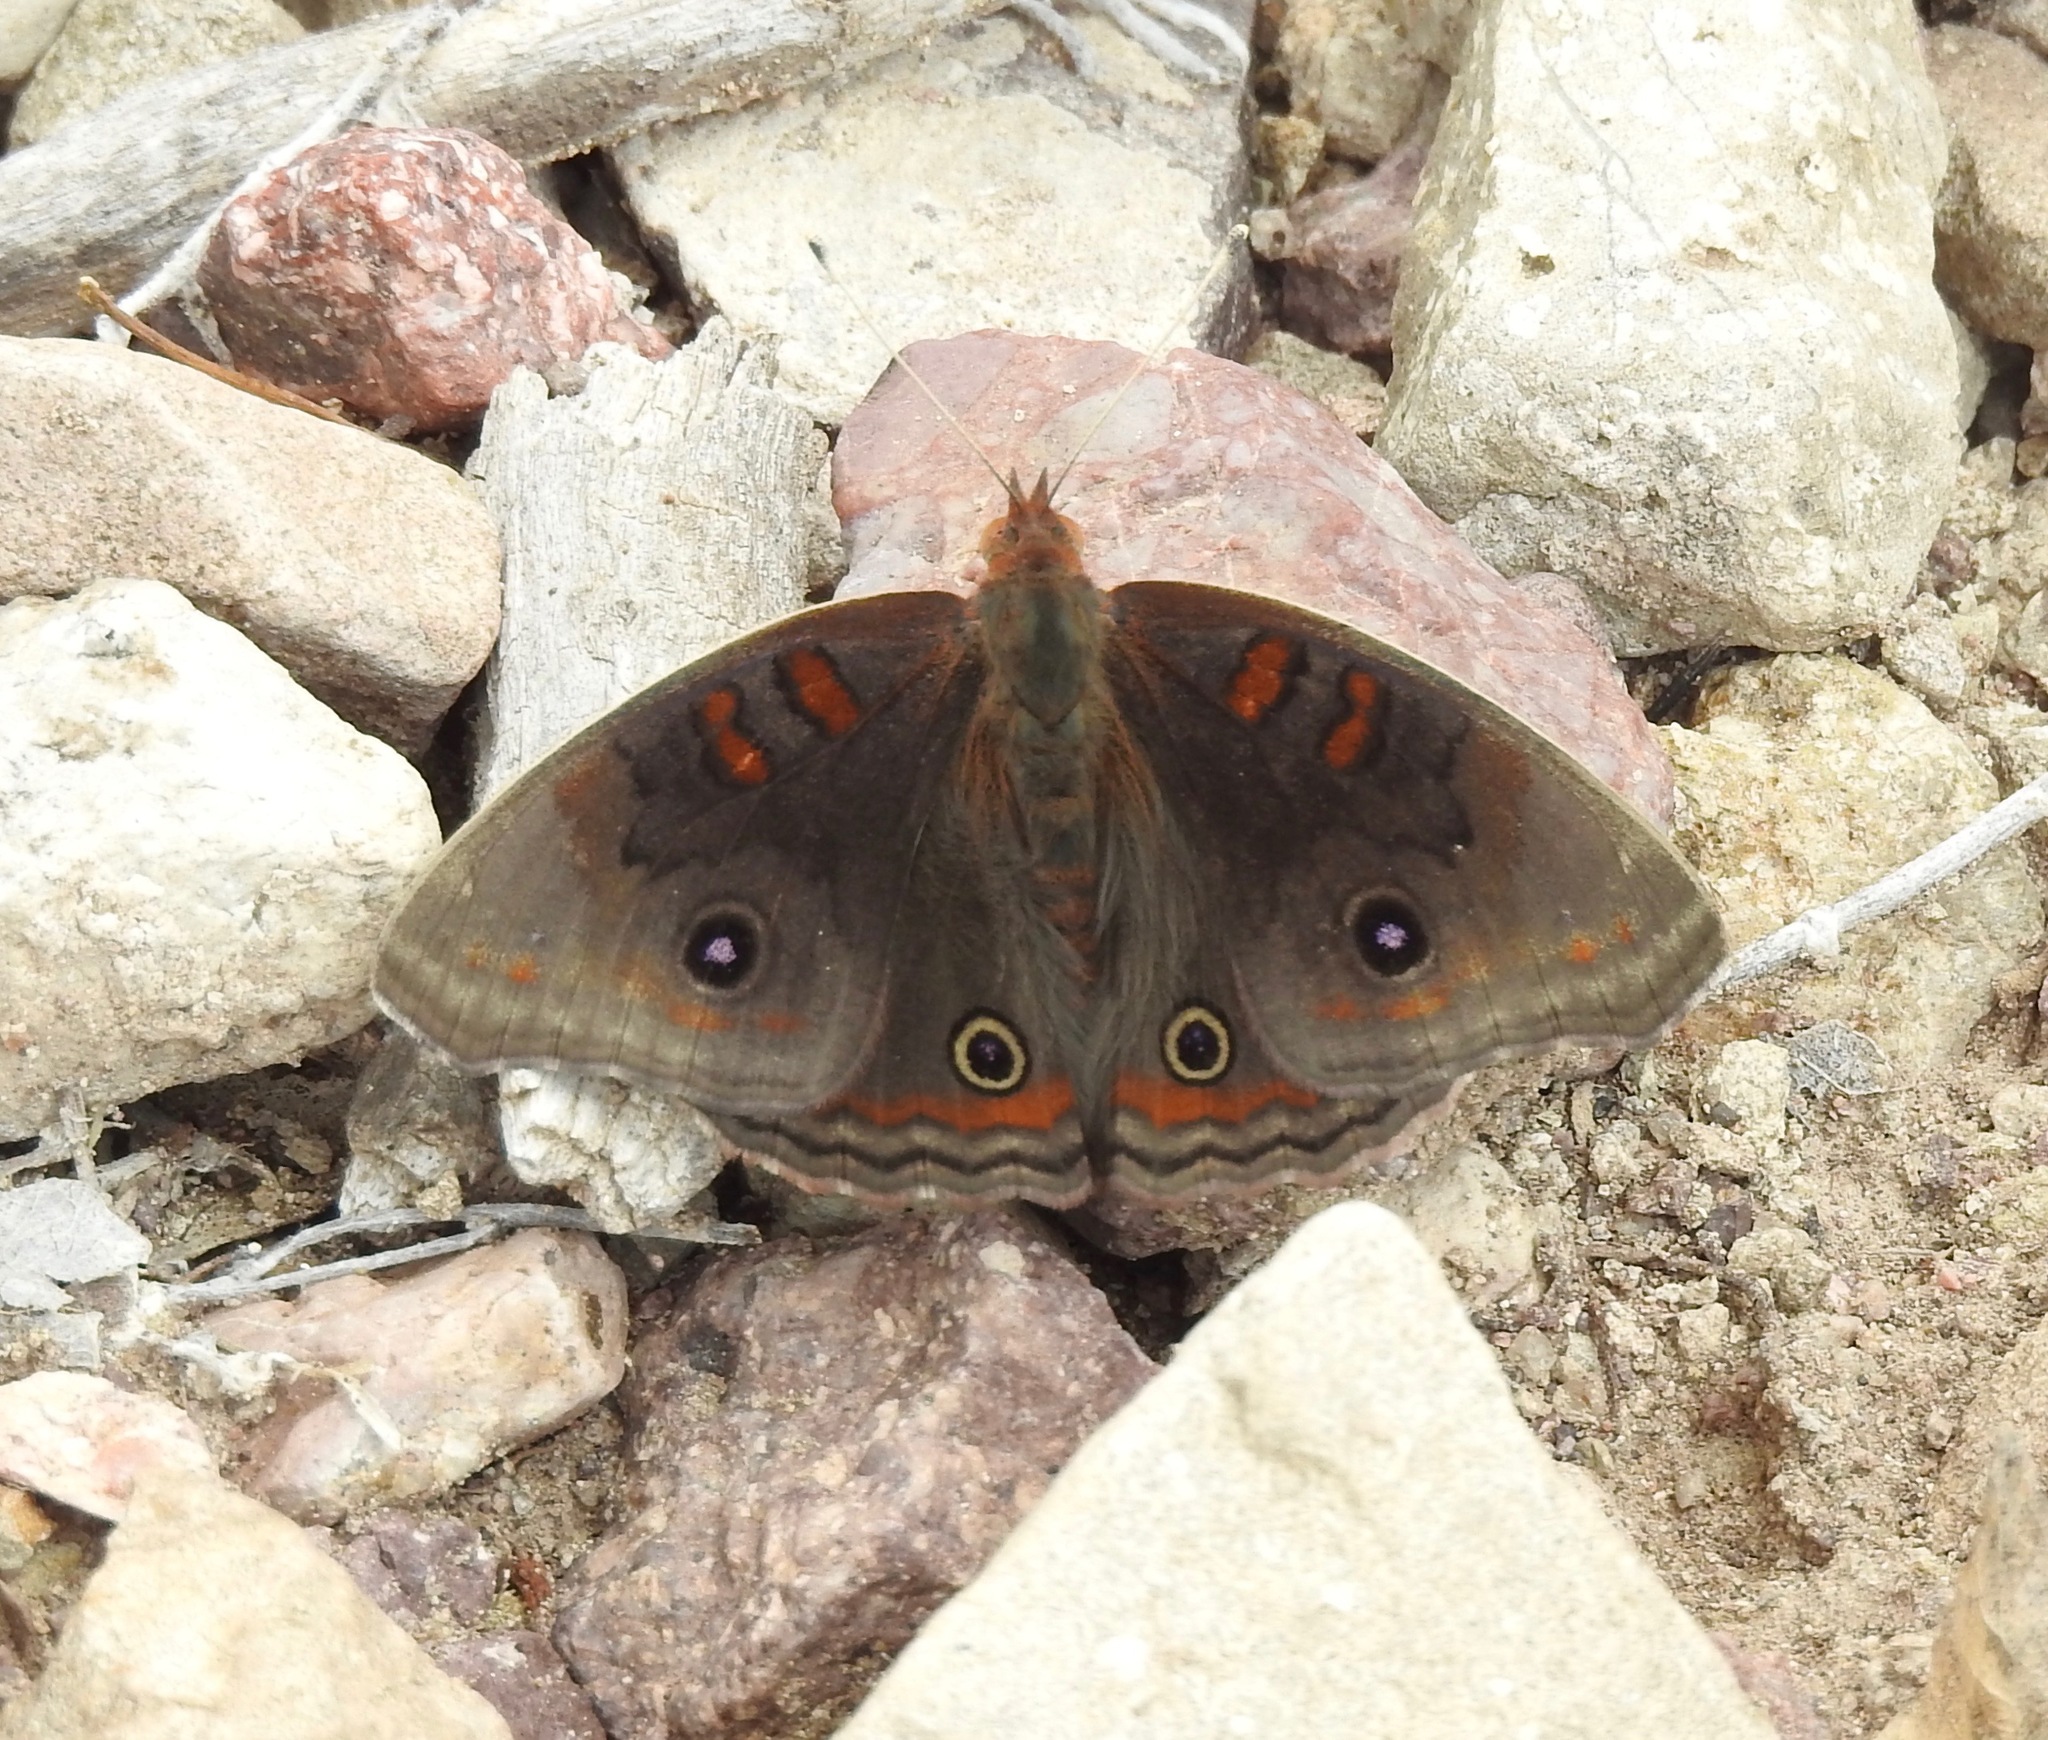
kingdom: Animalia
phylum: Arthropoda
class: Insecta
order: Lepidoptera
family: Nymphalidae
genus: Junonia
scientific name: Junonia nigrosuffusa
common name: Dark buckeye
